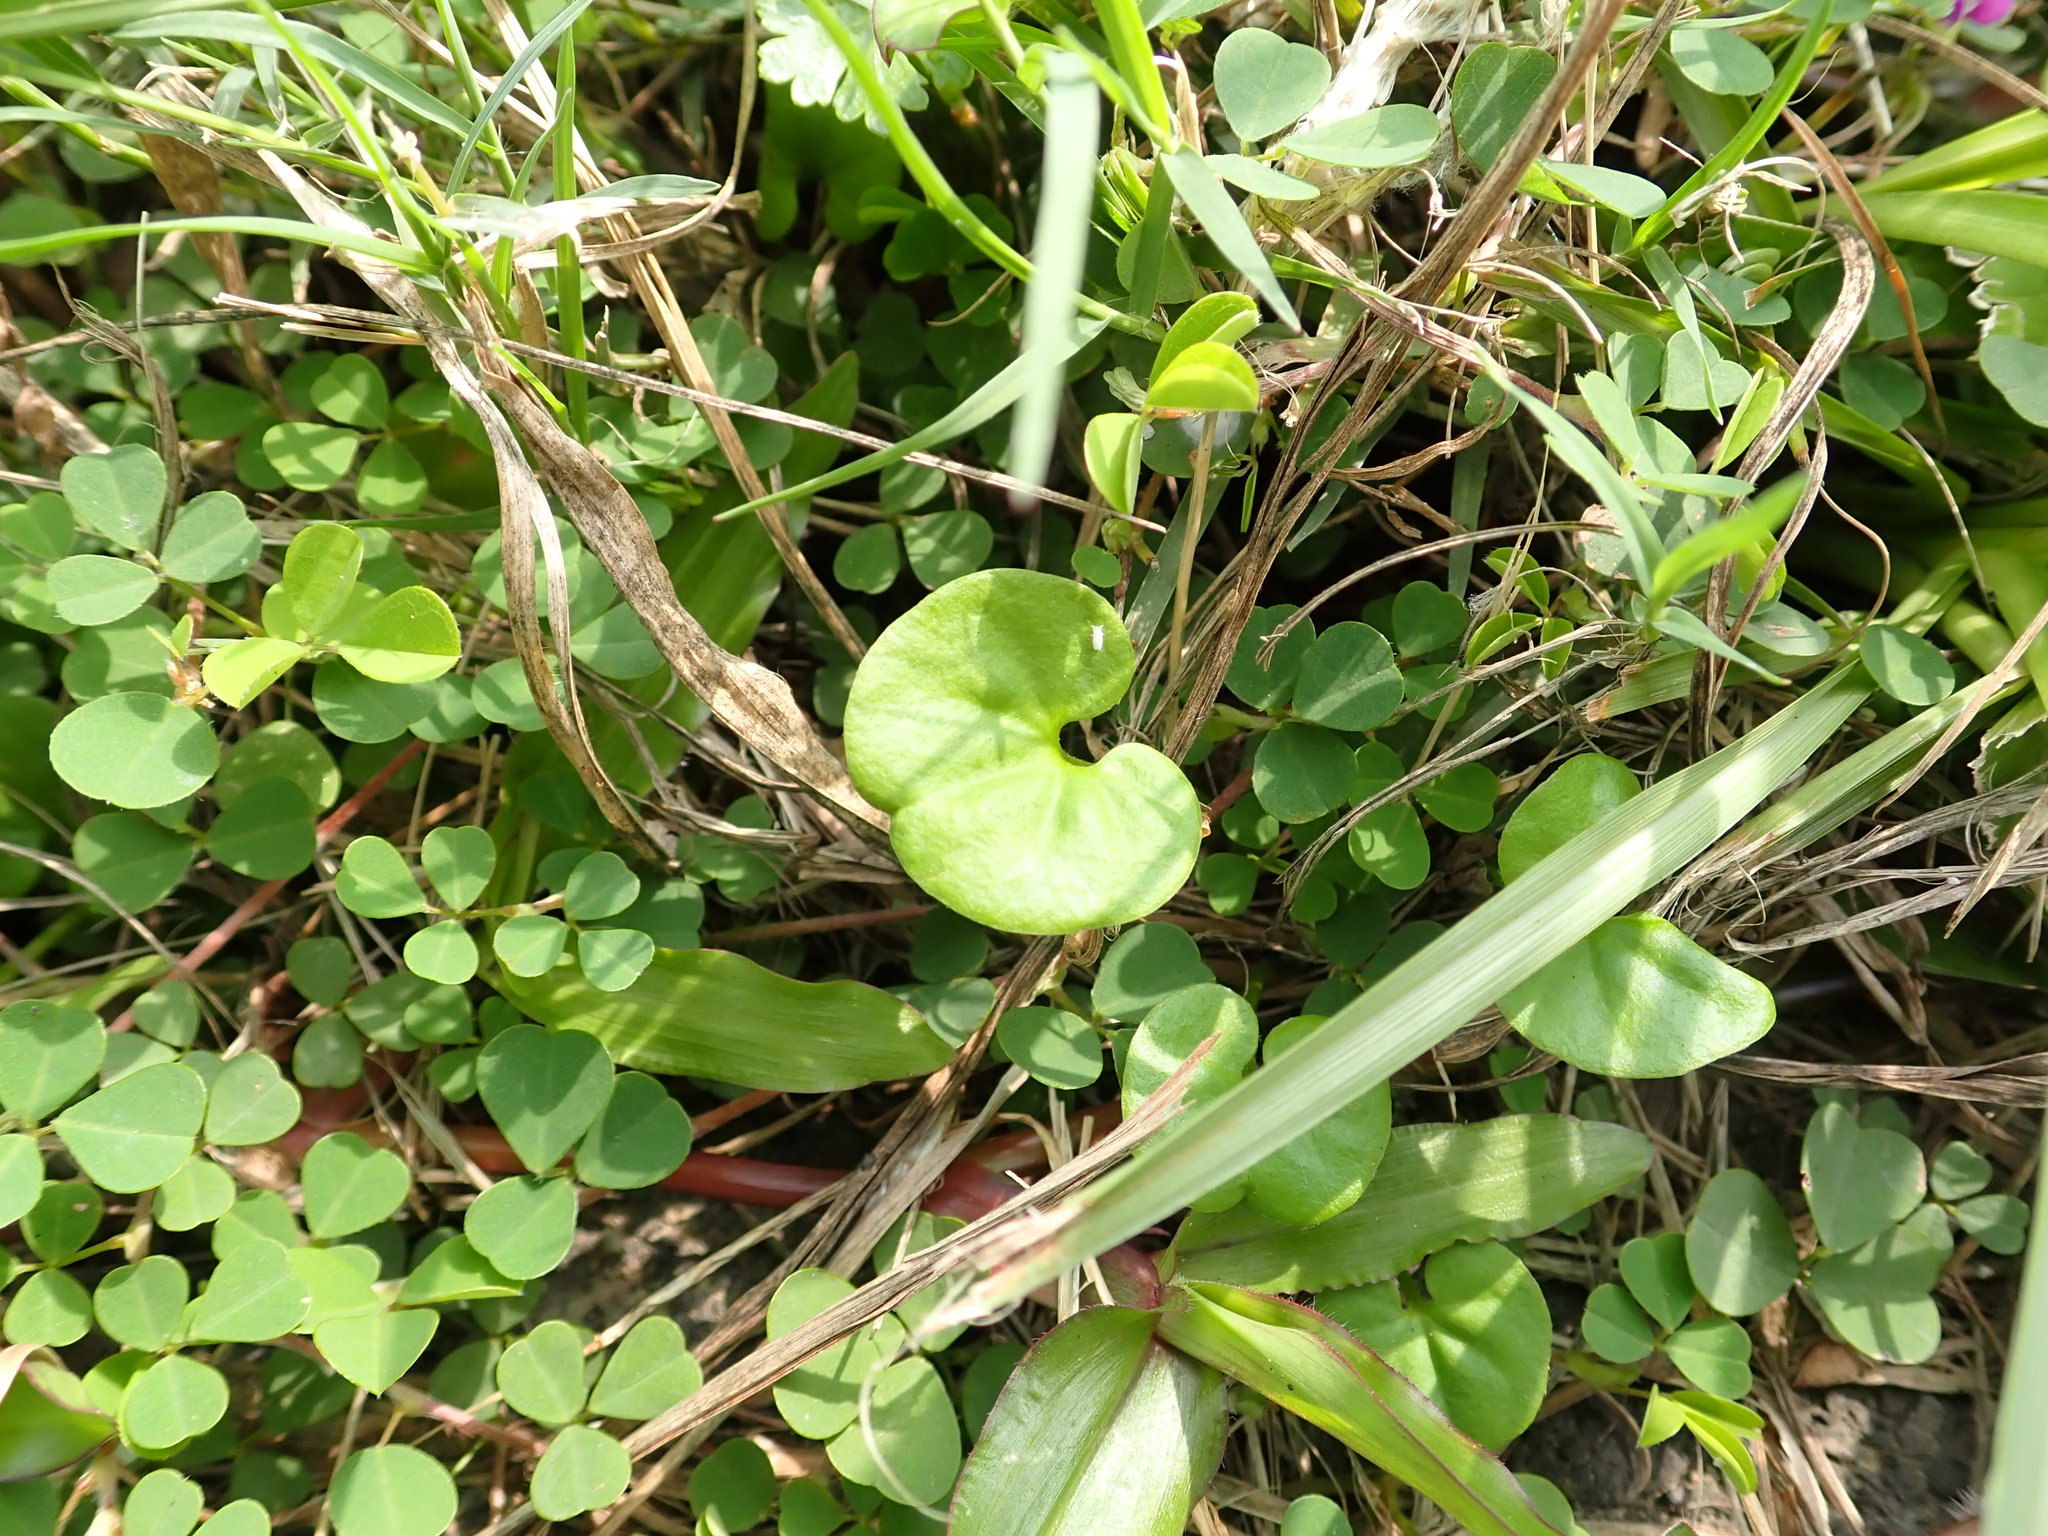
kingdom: Plantae
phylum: Tracheophyta
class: Magnoliopsida
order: Solanales
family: Convolvulaceae
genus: Dichondra
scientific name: Dichondra micrantha
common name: Kidneyweed
